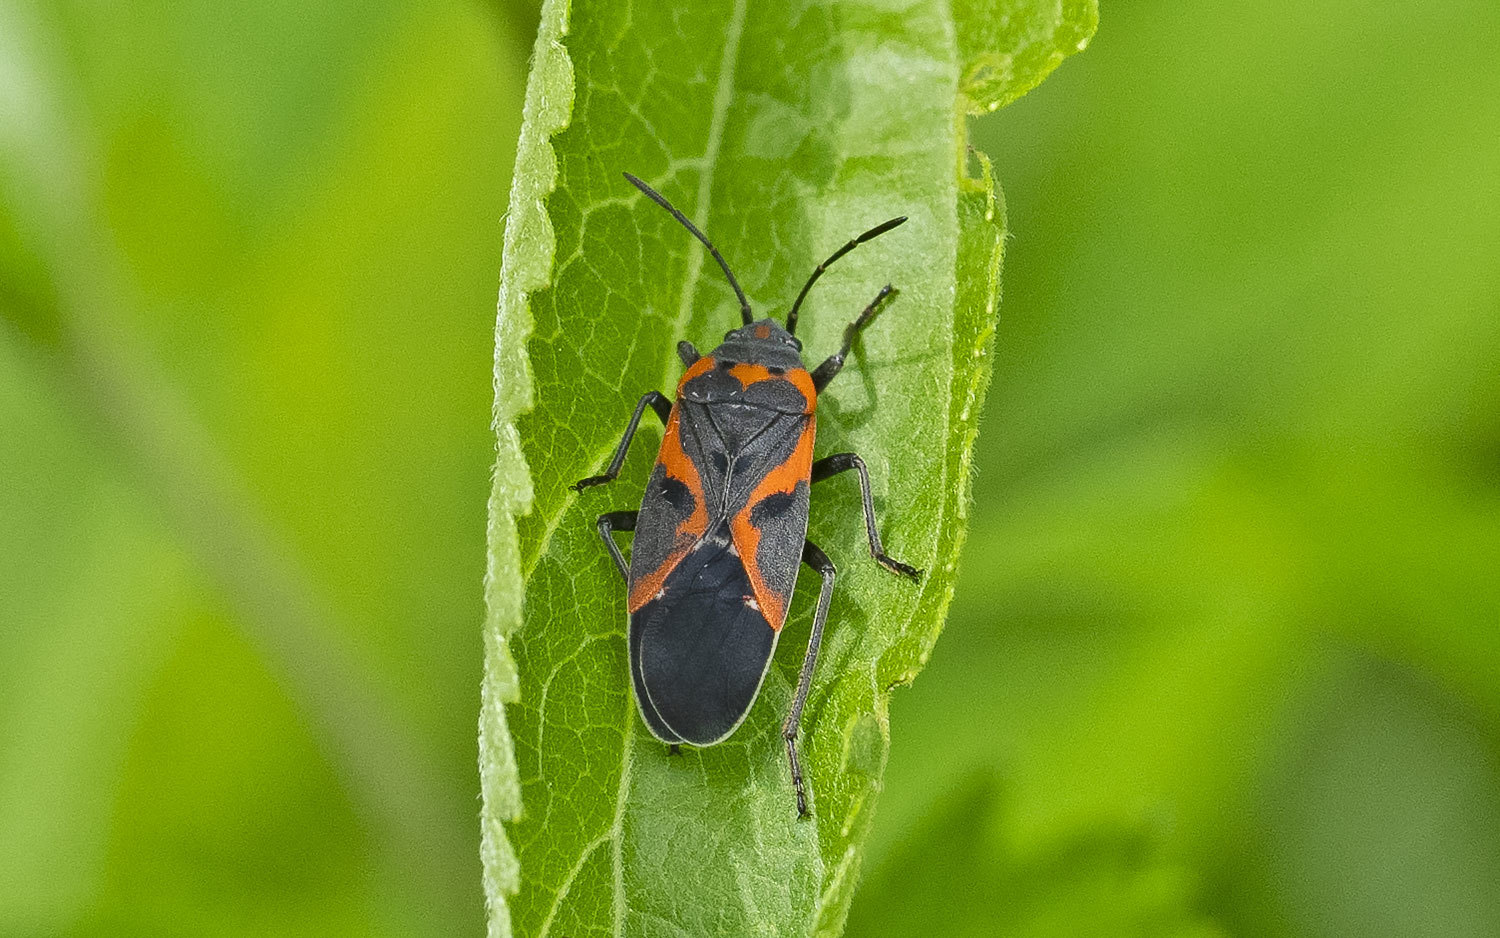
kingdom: Animalia
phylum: Arthropoda
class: Insecta
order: Hemiptera
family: Lygaeidae
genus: Lygaeus
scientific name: Lygaeus kalmii
